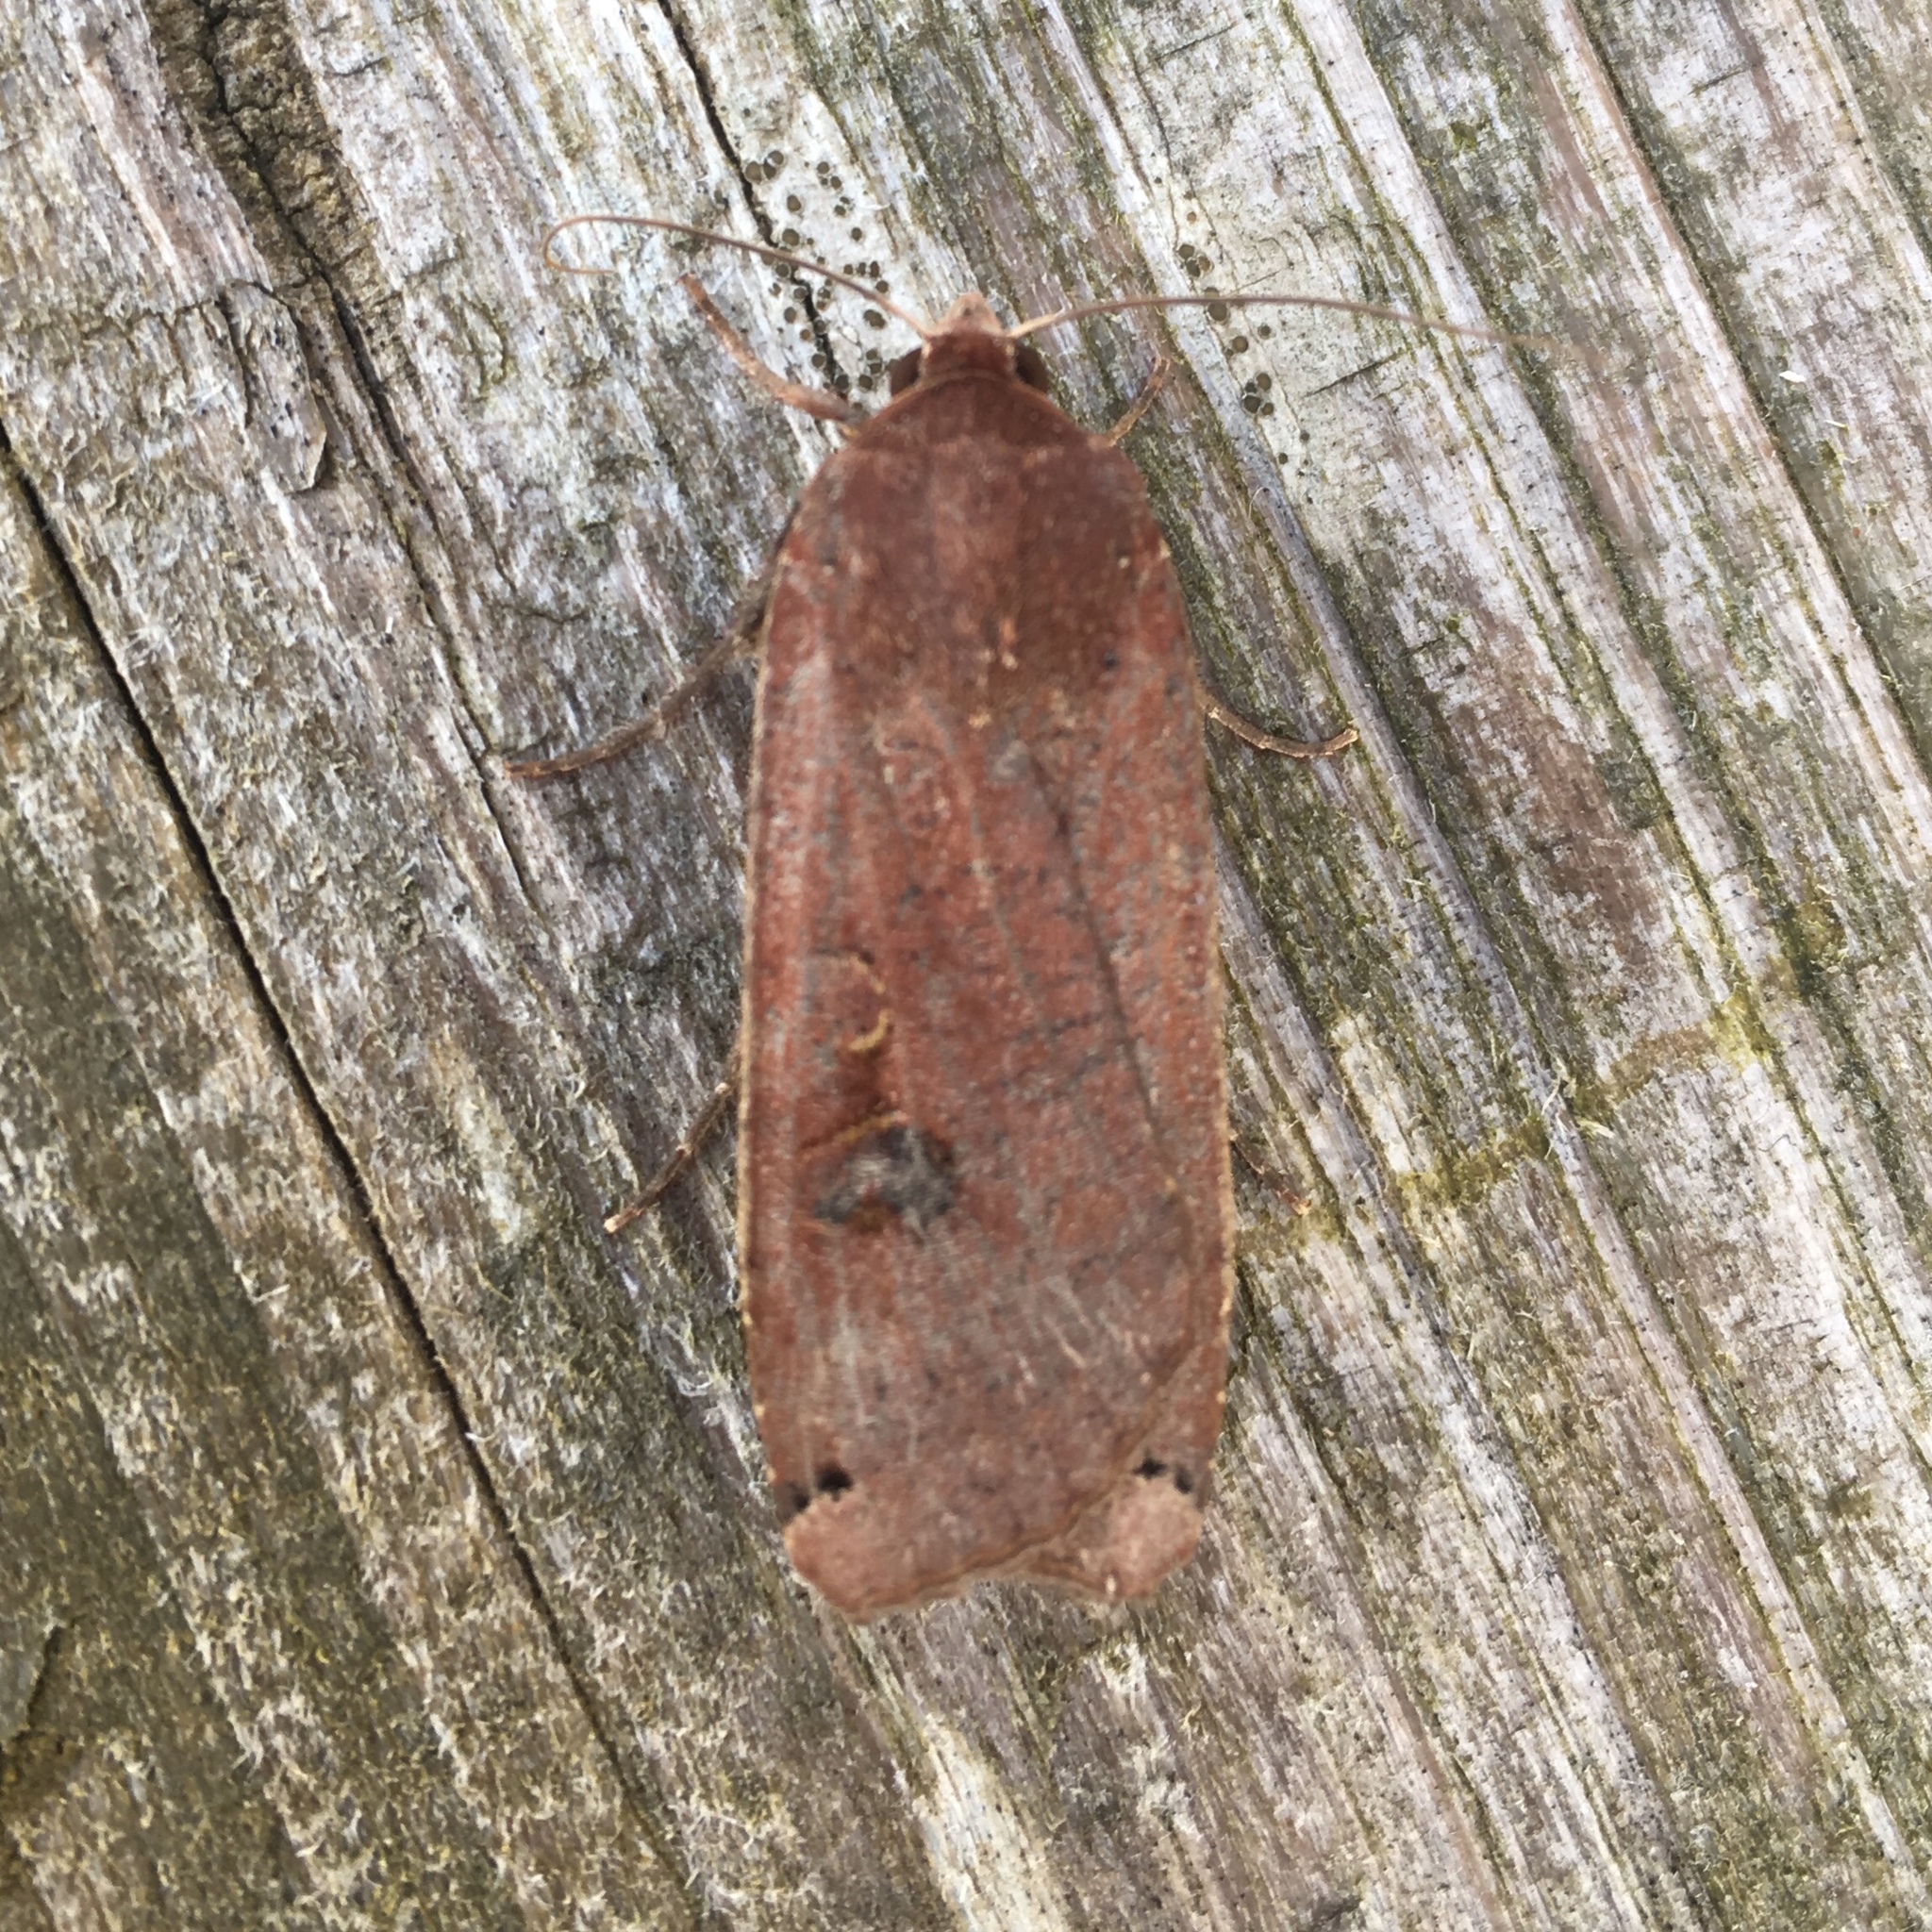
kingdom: Animalia
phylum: Arthropoda
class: Insecta
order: Lepidoptera
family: Noctuidae
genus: Noctua
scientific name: Noctua pronuba
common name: Large yellow underwing
